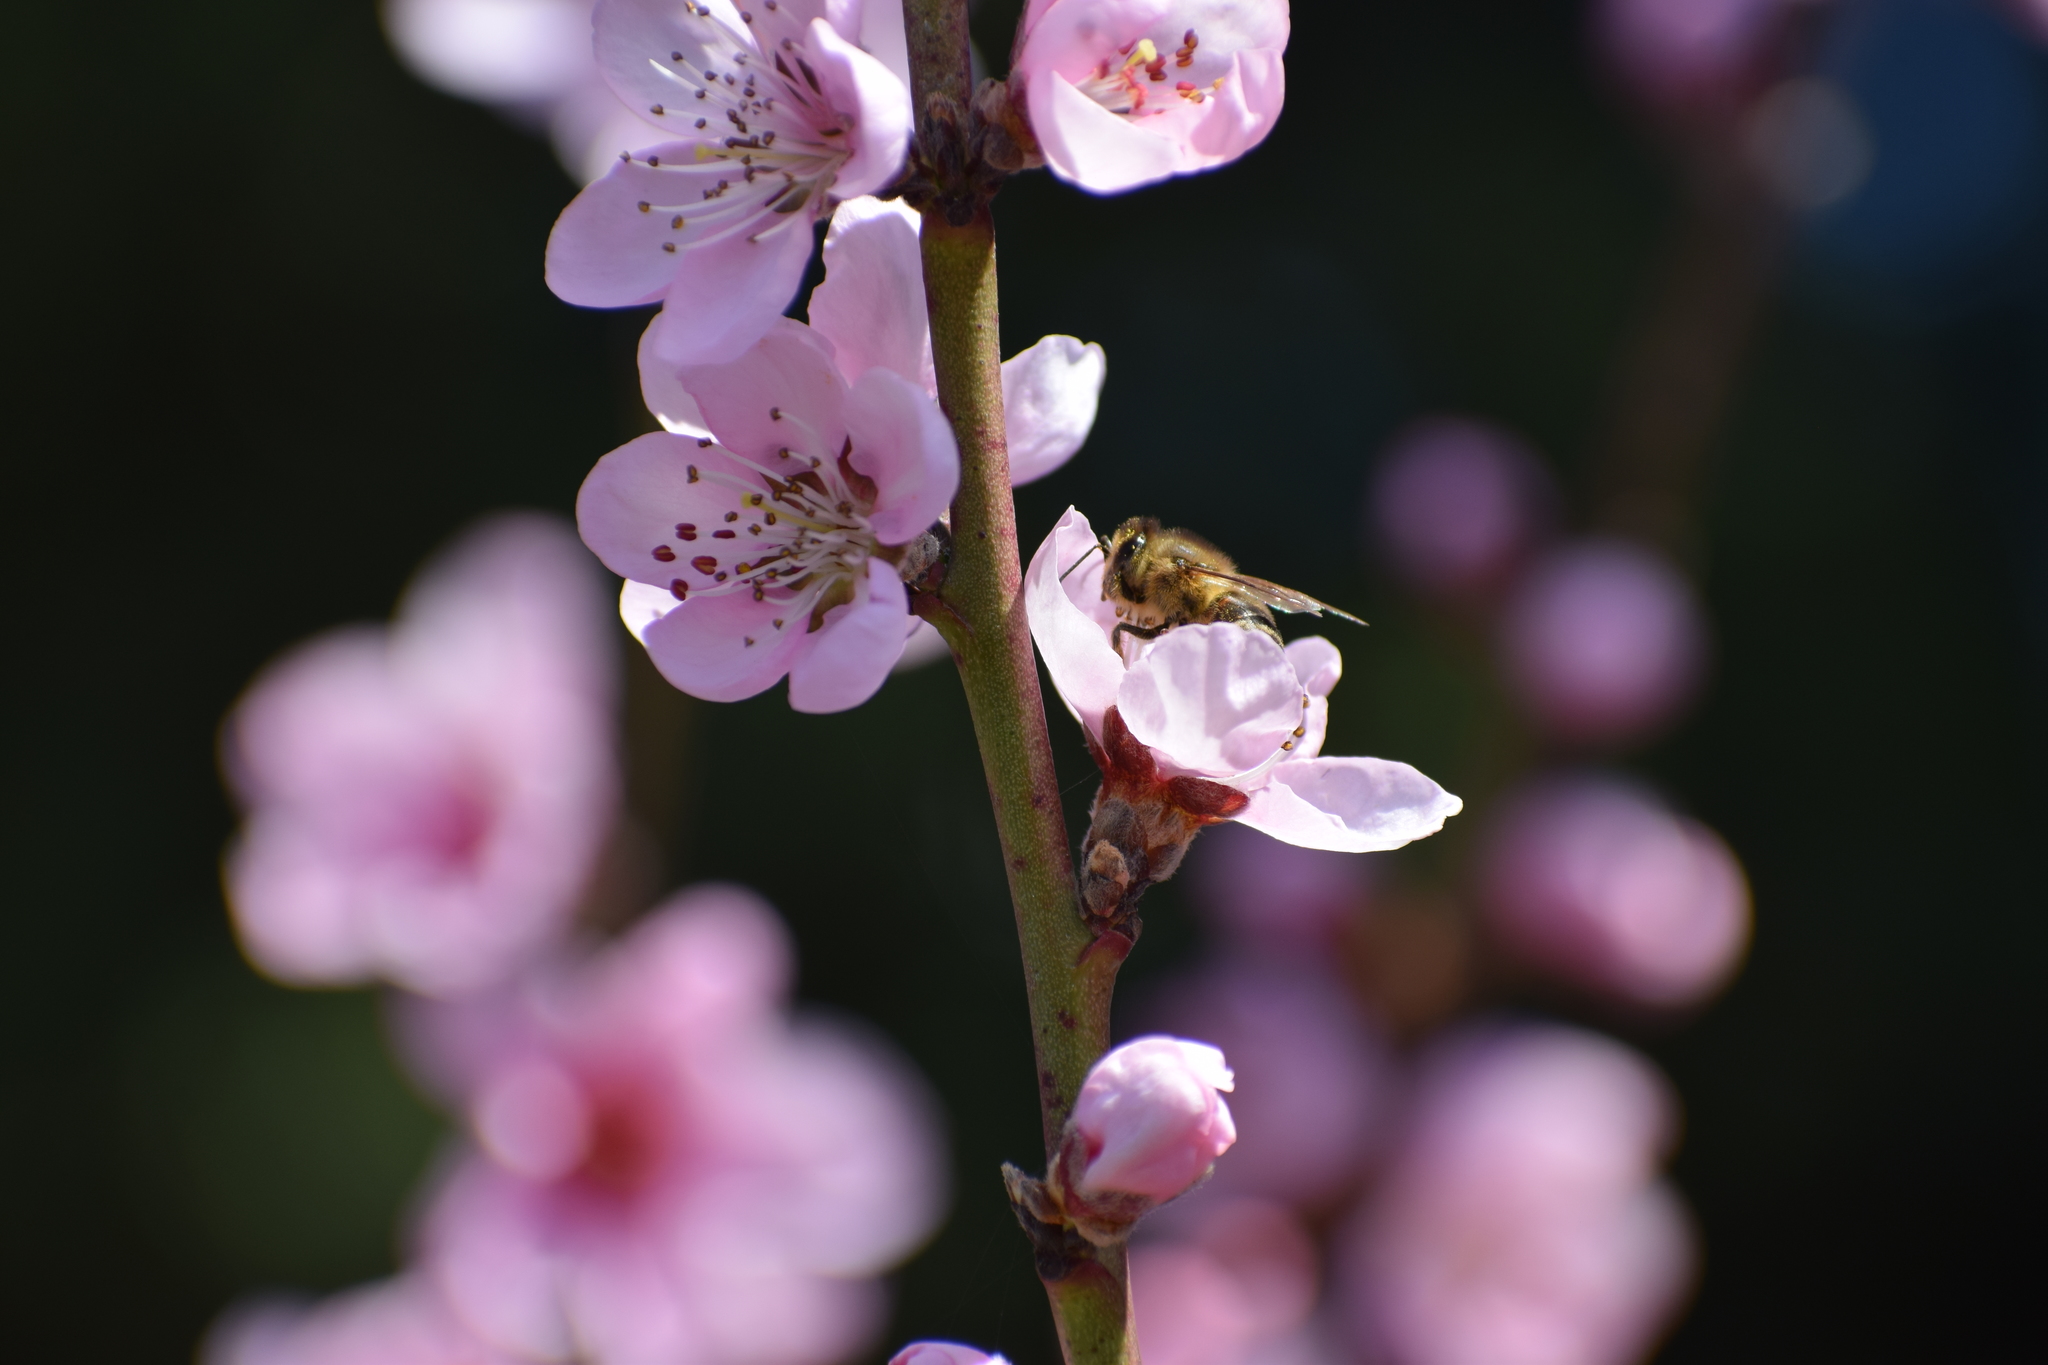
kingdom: Animalia
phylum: Arthropoda
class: Insecta
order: Hymenoptera
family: Apidae
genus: Apis
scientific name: Apis mellifera
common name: Honey bee
